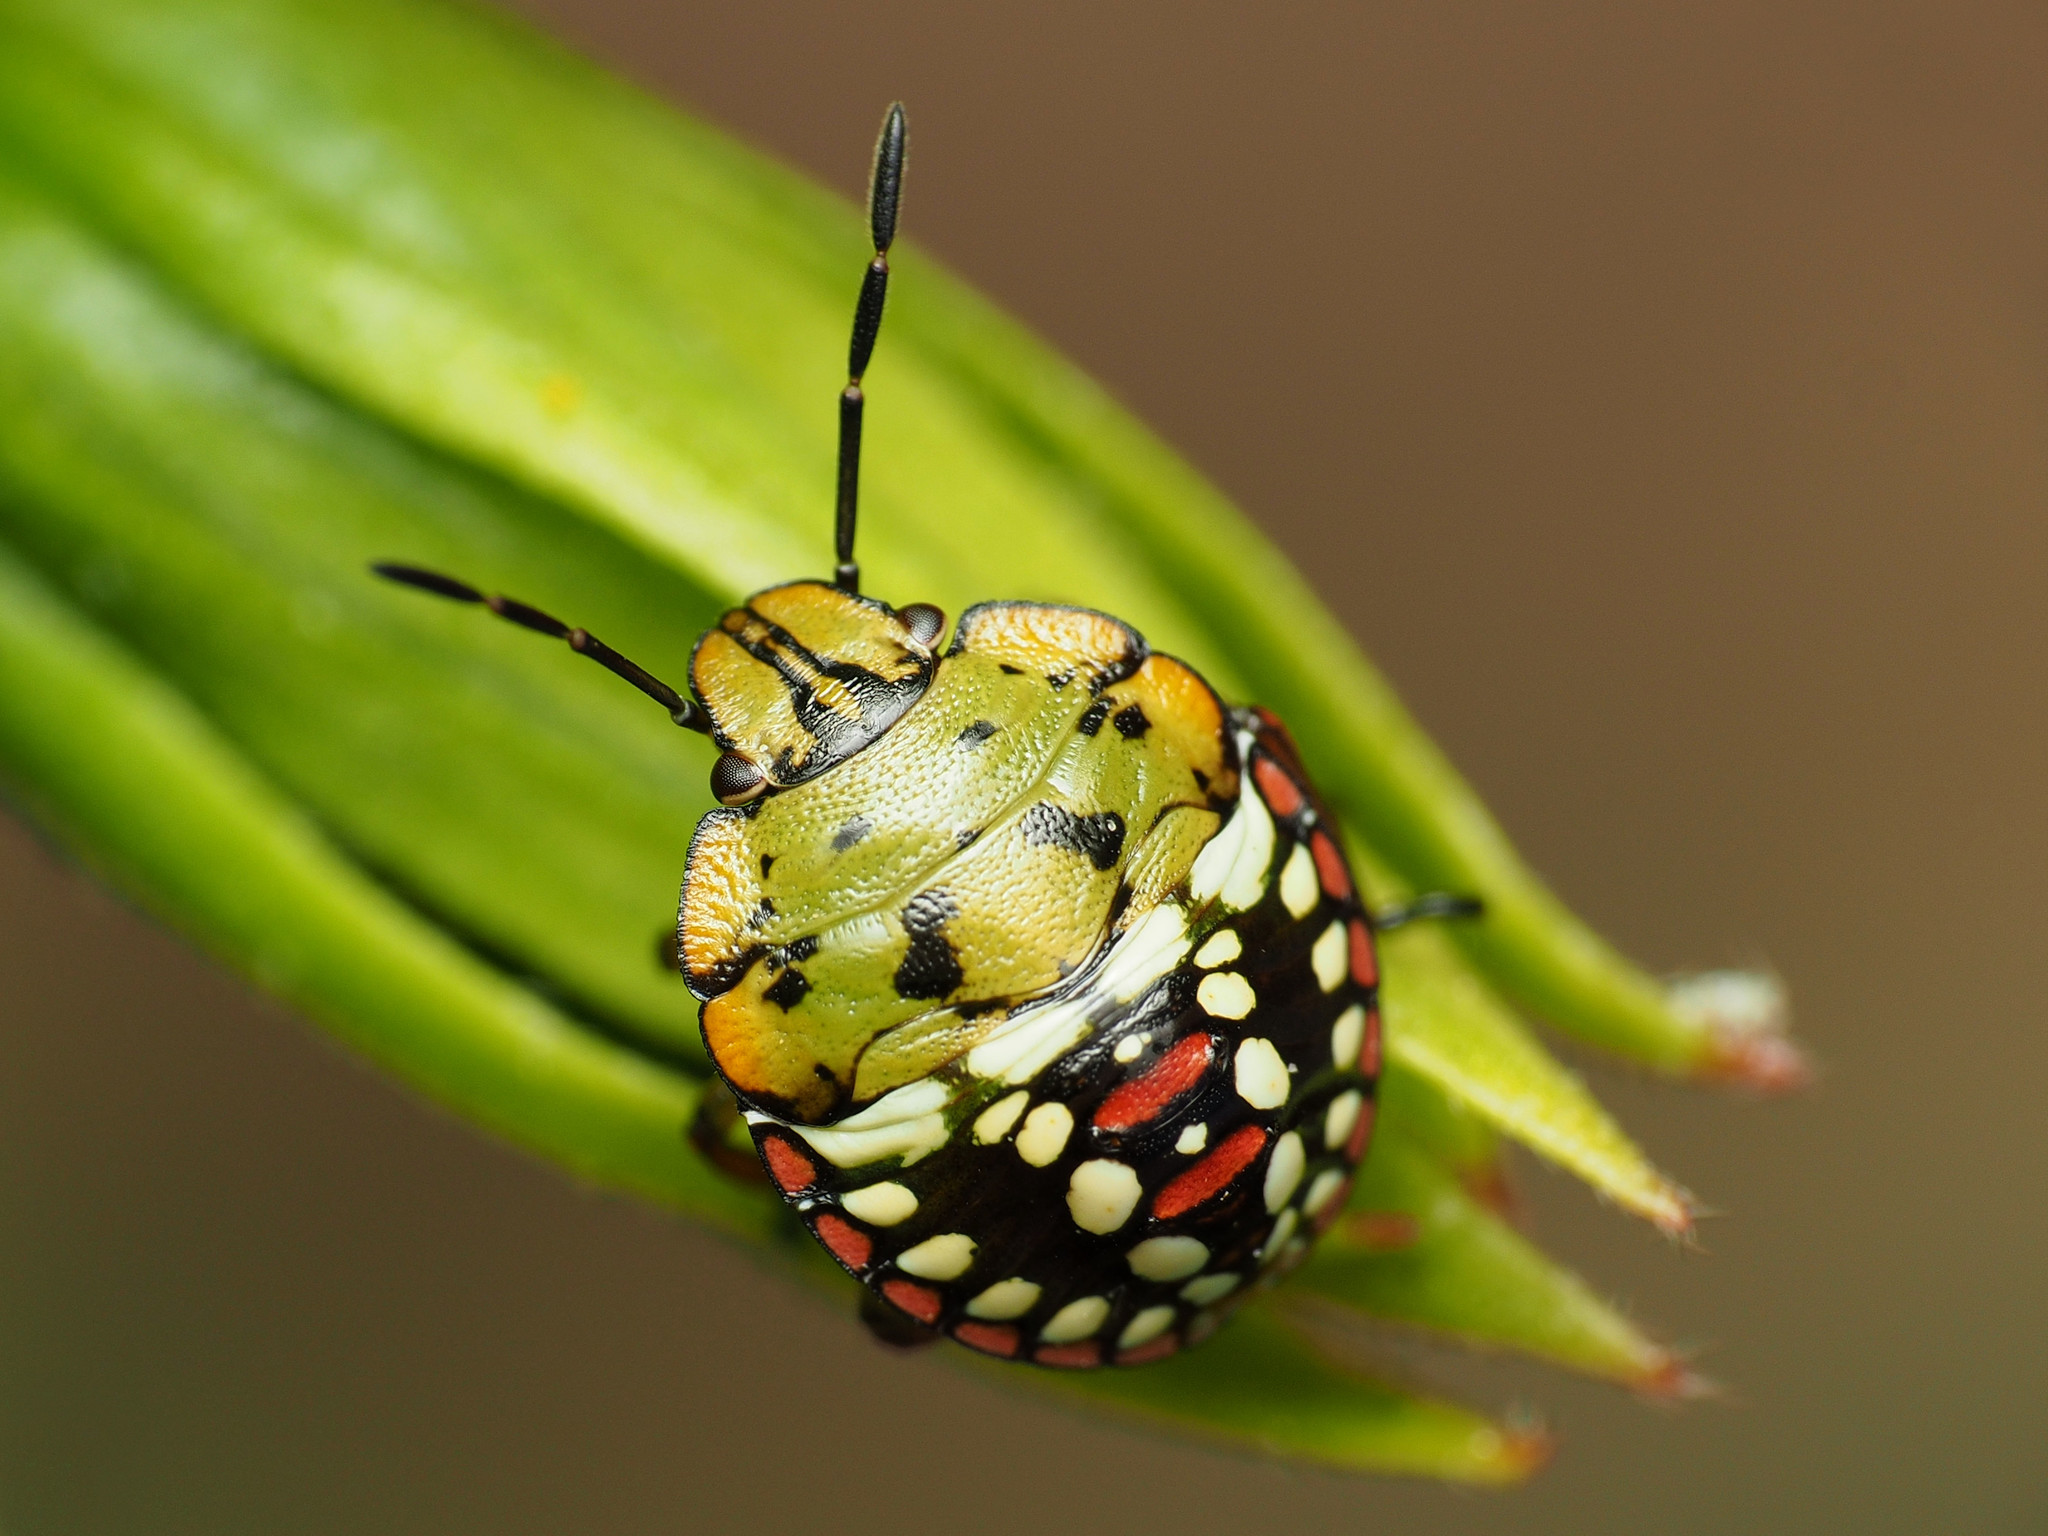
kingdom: Animalia
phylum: Arthropoda
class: Insecta
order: Hemiptera
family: Pentatomidae
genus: Nezara
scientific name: Nezara viridula
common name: Southern green stink bug
